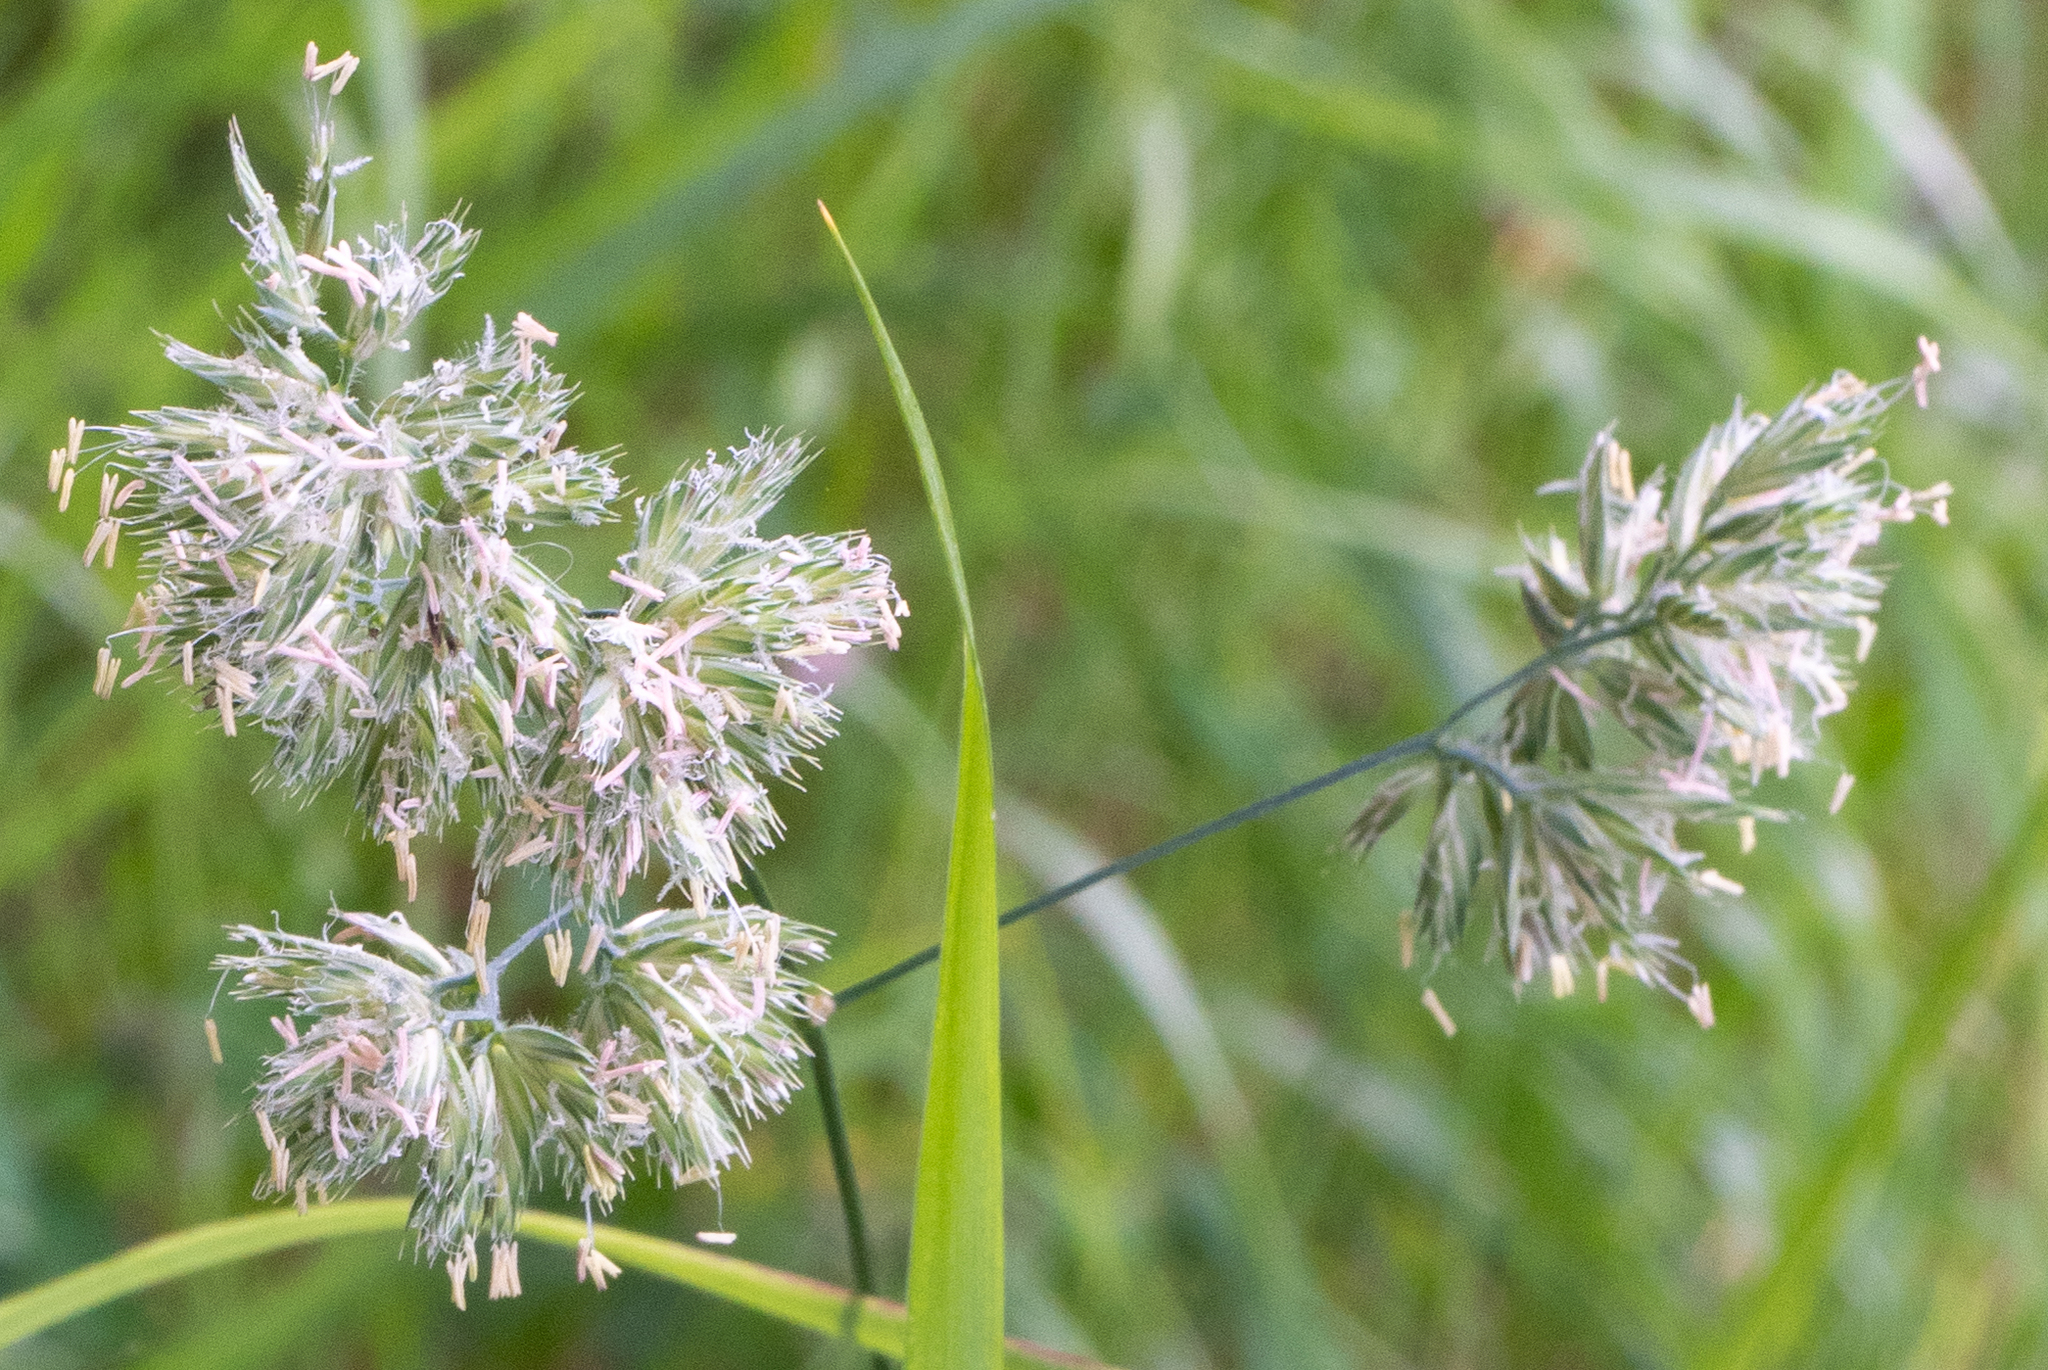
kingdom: Plantae
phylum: Tracheophyta
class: Liliopsida
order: Poales
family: Poaceae
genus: Dactylis
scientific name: Dactylis glomerata
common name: Orchardgrass
